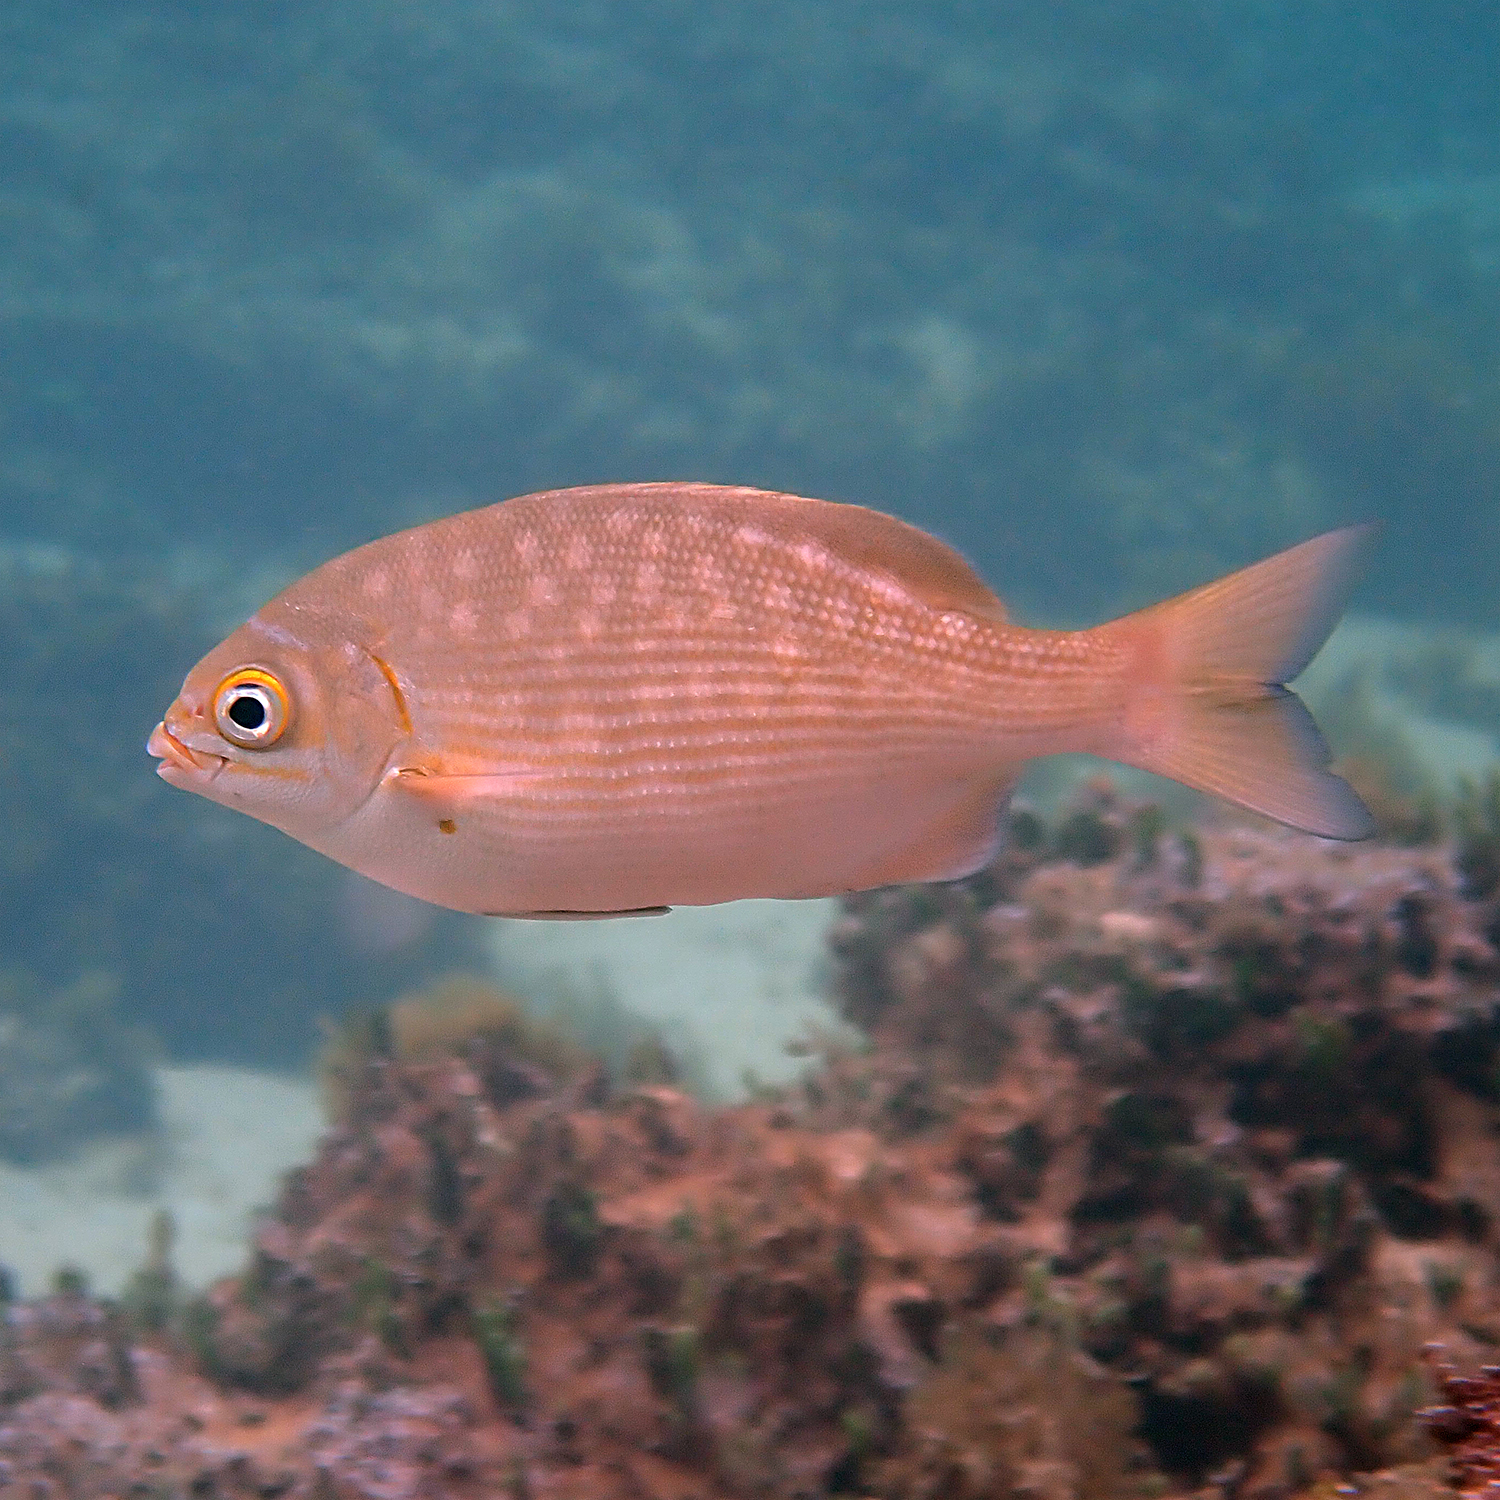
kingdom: Animalia
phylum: Chordata
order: Perciformes
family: Kyphosidae
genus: Kyphosus
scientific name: Kyphosus vaigiensis
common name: Brassy chub
